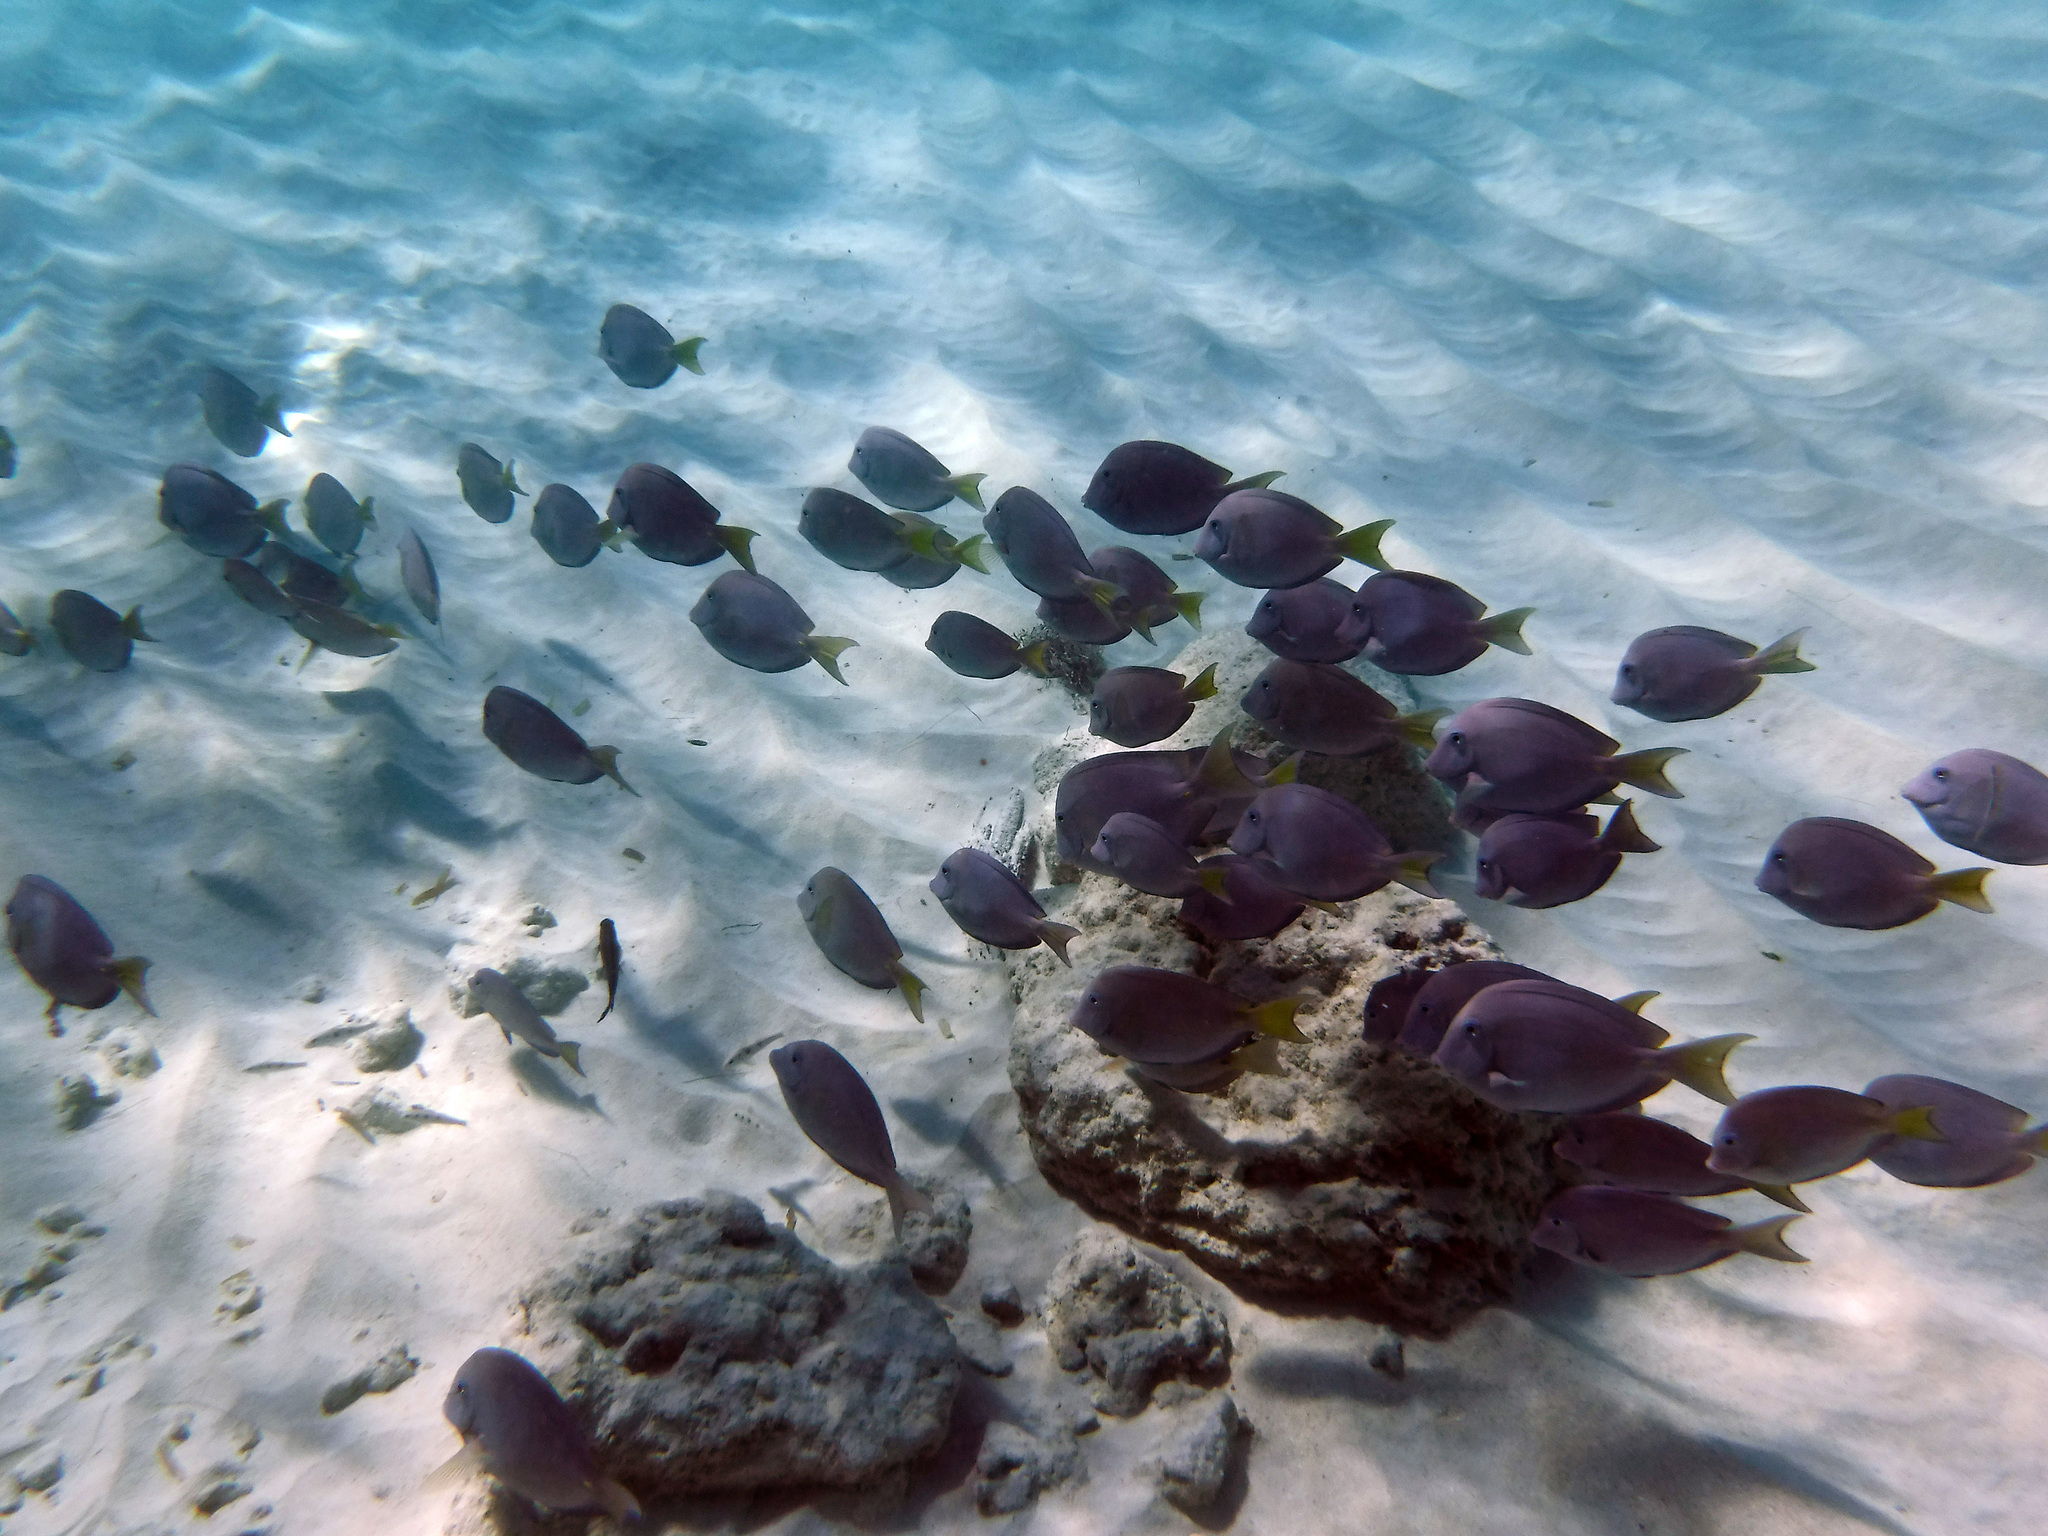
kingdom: Animalia
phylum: Chordata
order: Perciformes
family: Acanthuridae
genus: Acanthurus
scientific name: Acanthurus coeruleus
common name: Blue tang
